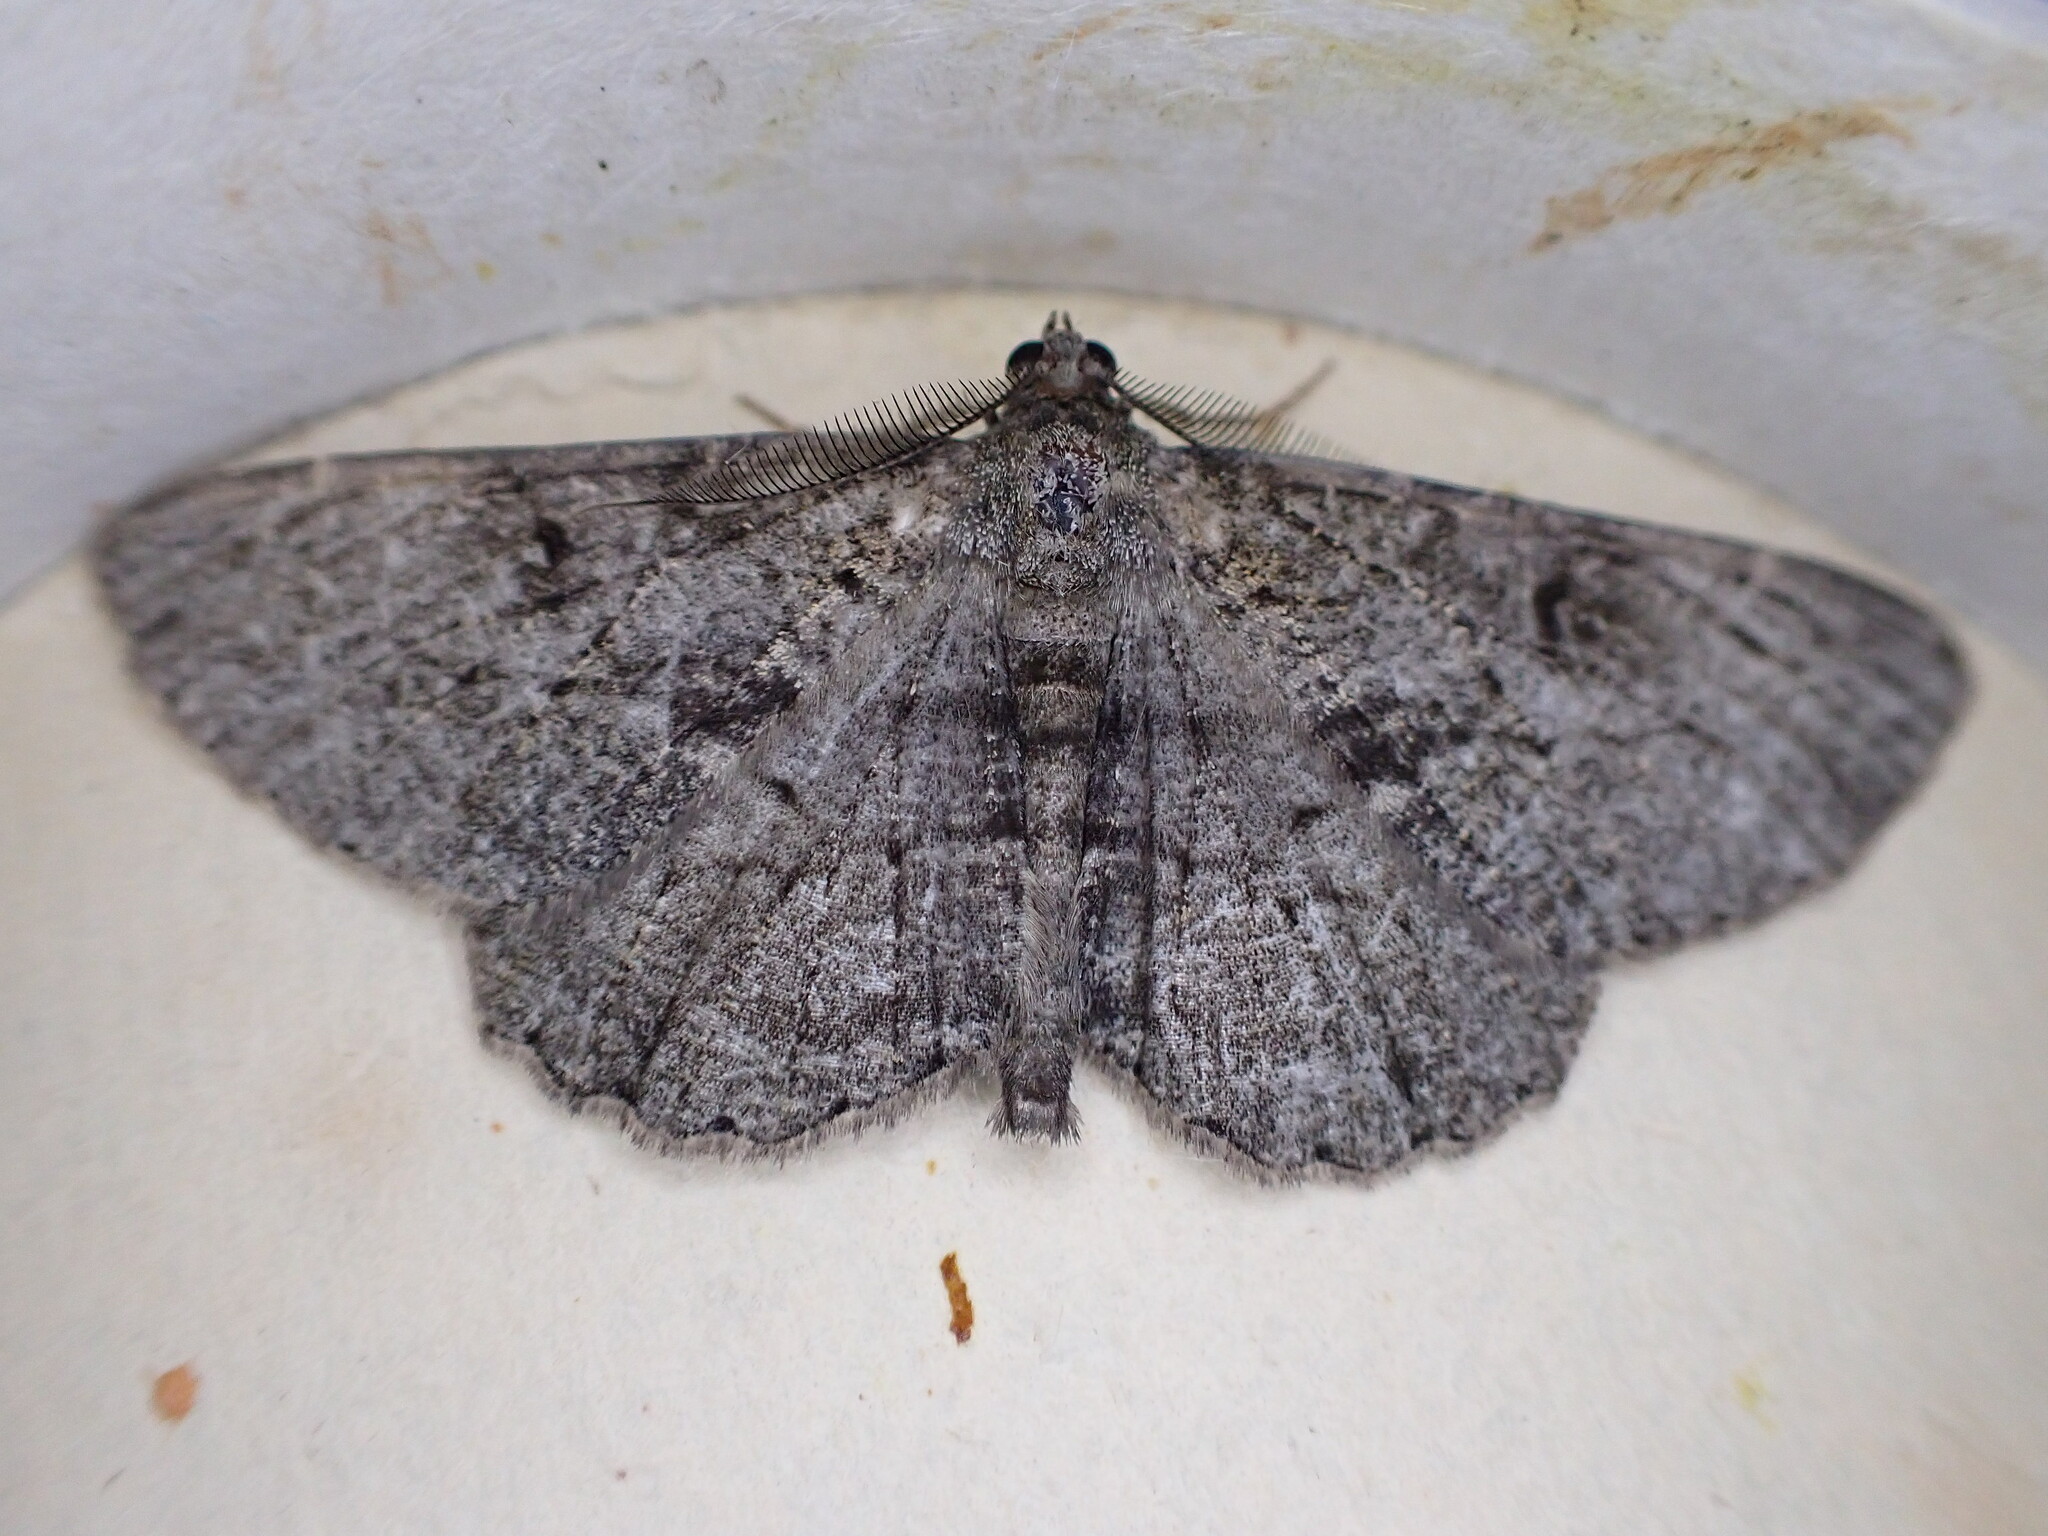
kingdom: Animalia
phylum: Arthropoda
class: Insecta
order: Lepidoptera
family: Geometridae
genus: Peribatodes
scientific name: Peribatodes rhomboidaria
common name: Willow beauty
